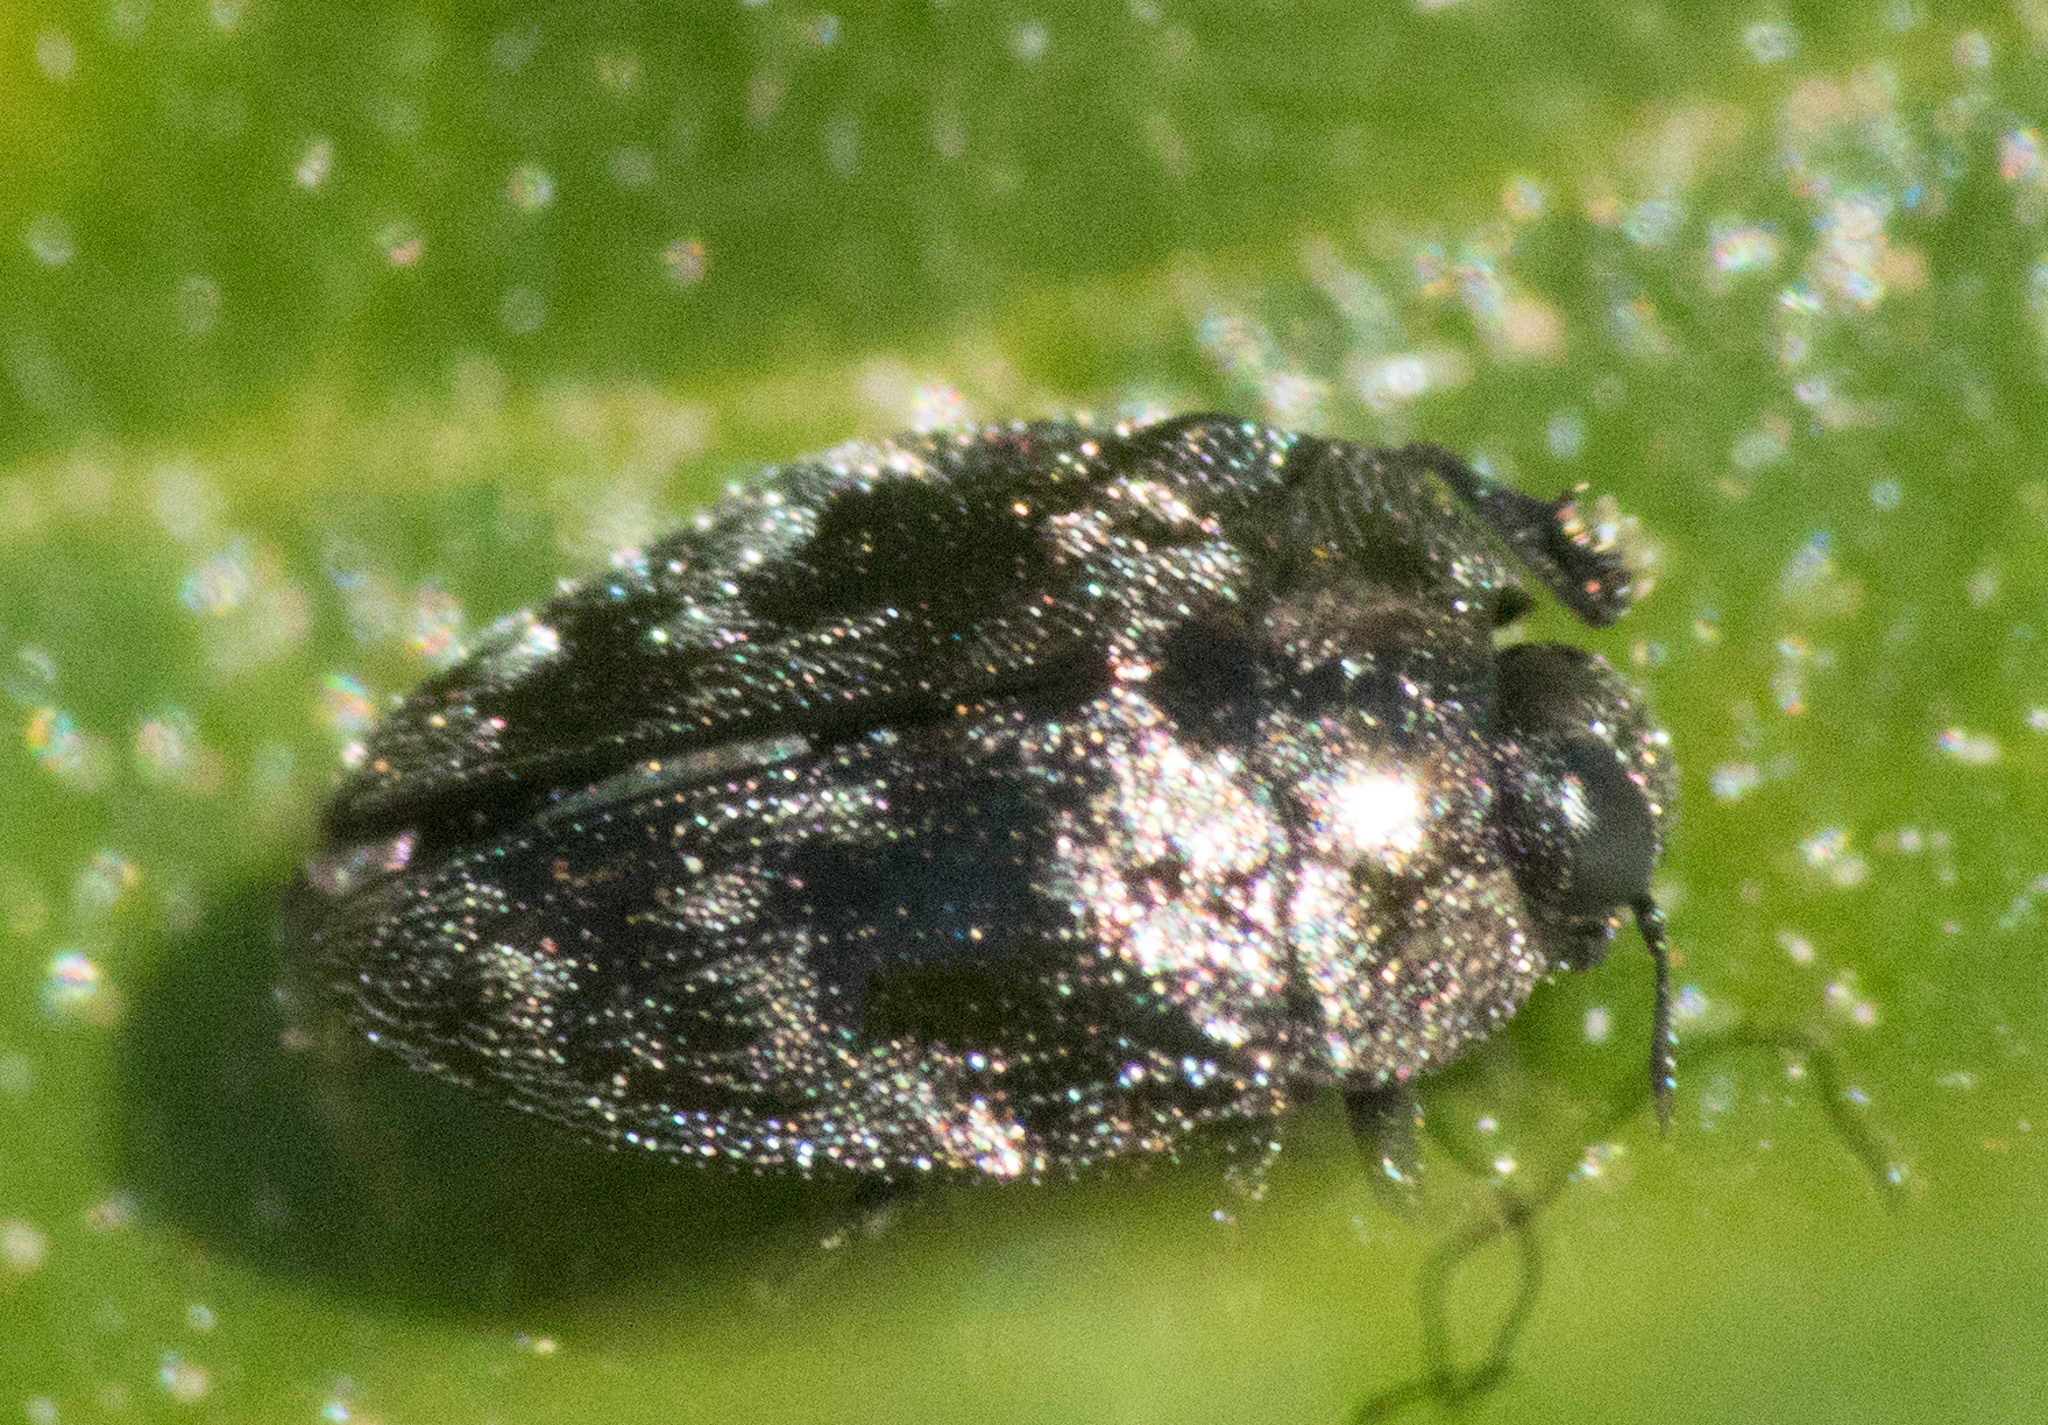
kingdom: Animalia
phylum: Arthropoda
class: Insecta
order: Coleoptera
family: Buprestidae
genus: Euhylaeogena
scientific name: Euhylaeogena
